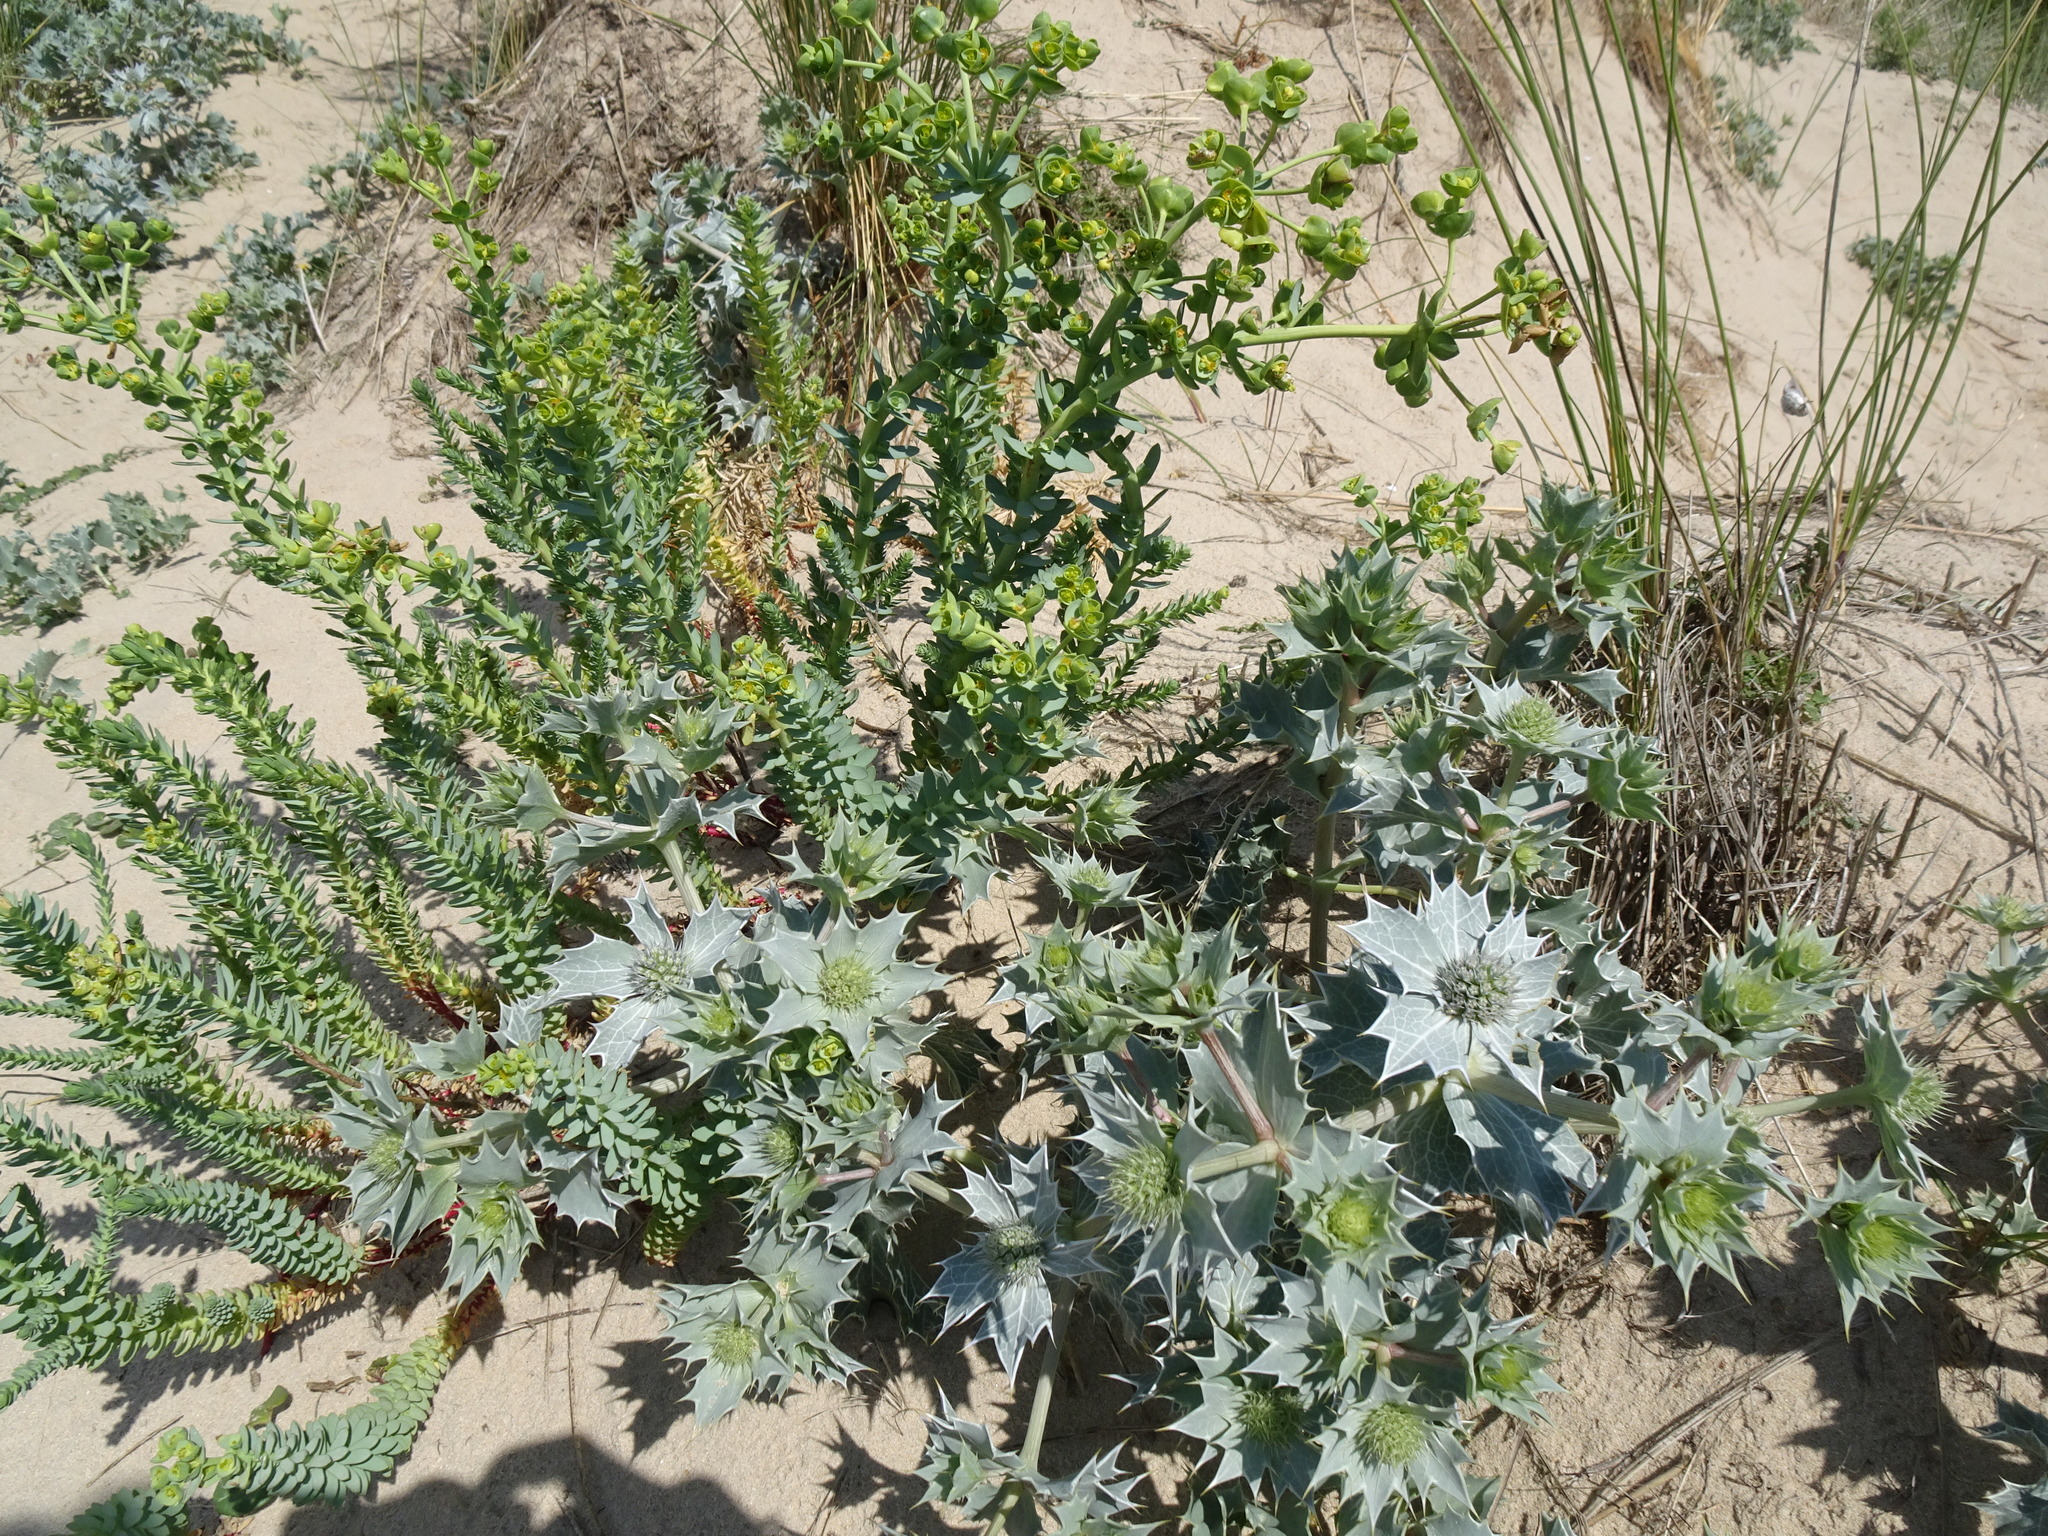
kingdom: Plantae
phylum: Tracheophyta
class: Magnoliopsida
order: Apiales
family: Apiaceae
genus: Eryngium
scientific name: Eryngium maritimum
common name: Sea-holly
